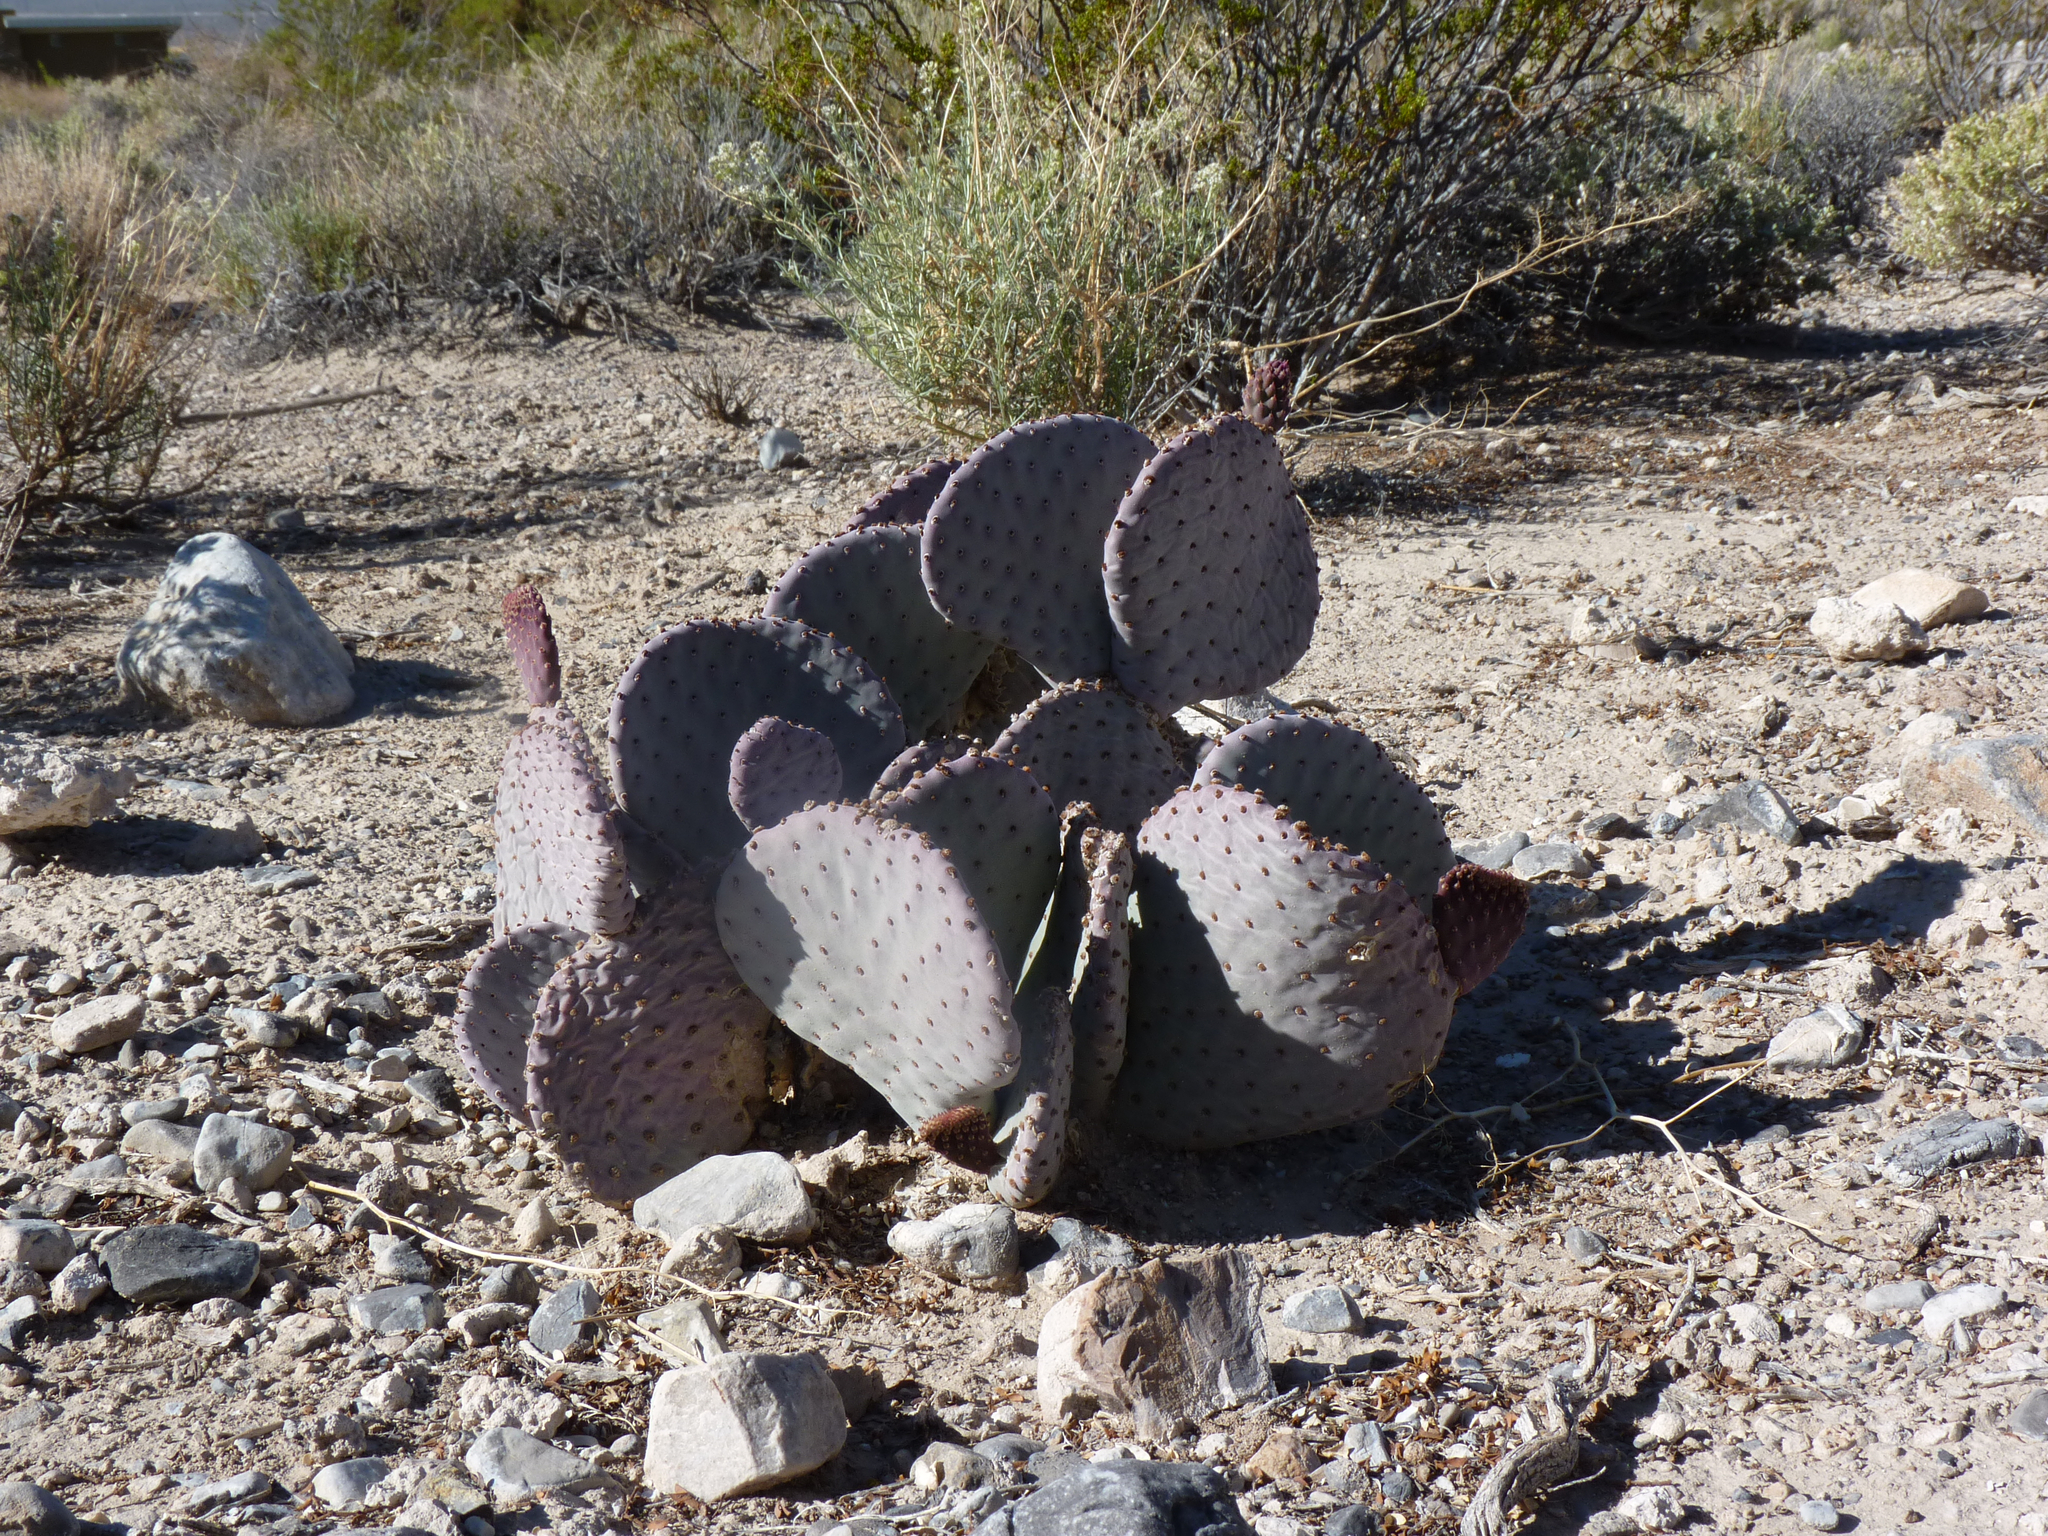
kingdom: Plantae
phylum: Tracheophyta
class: Magnoliopsida
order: Caryophyllales
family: Cactaceae
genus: Opuntia
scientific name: Opuntia basilaris
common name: Beavertail prickly-pear
